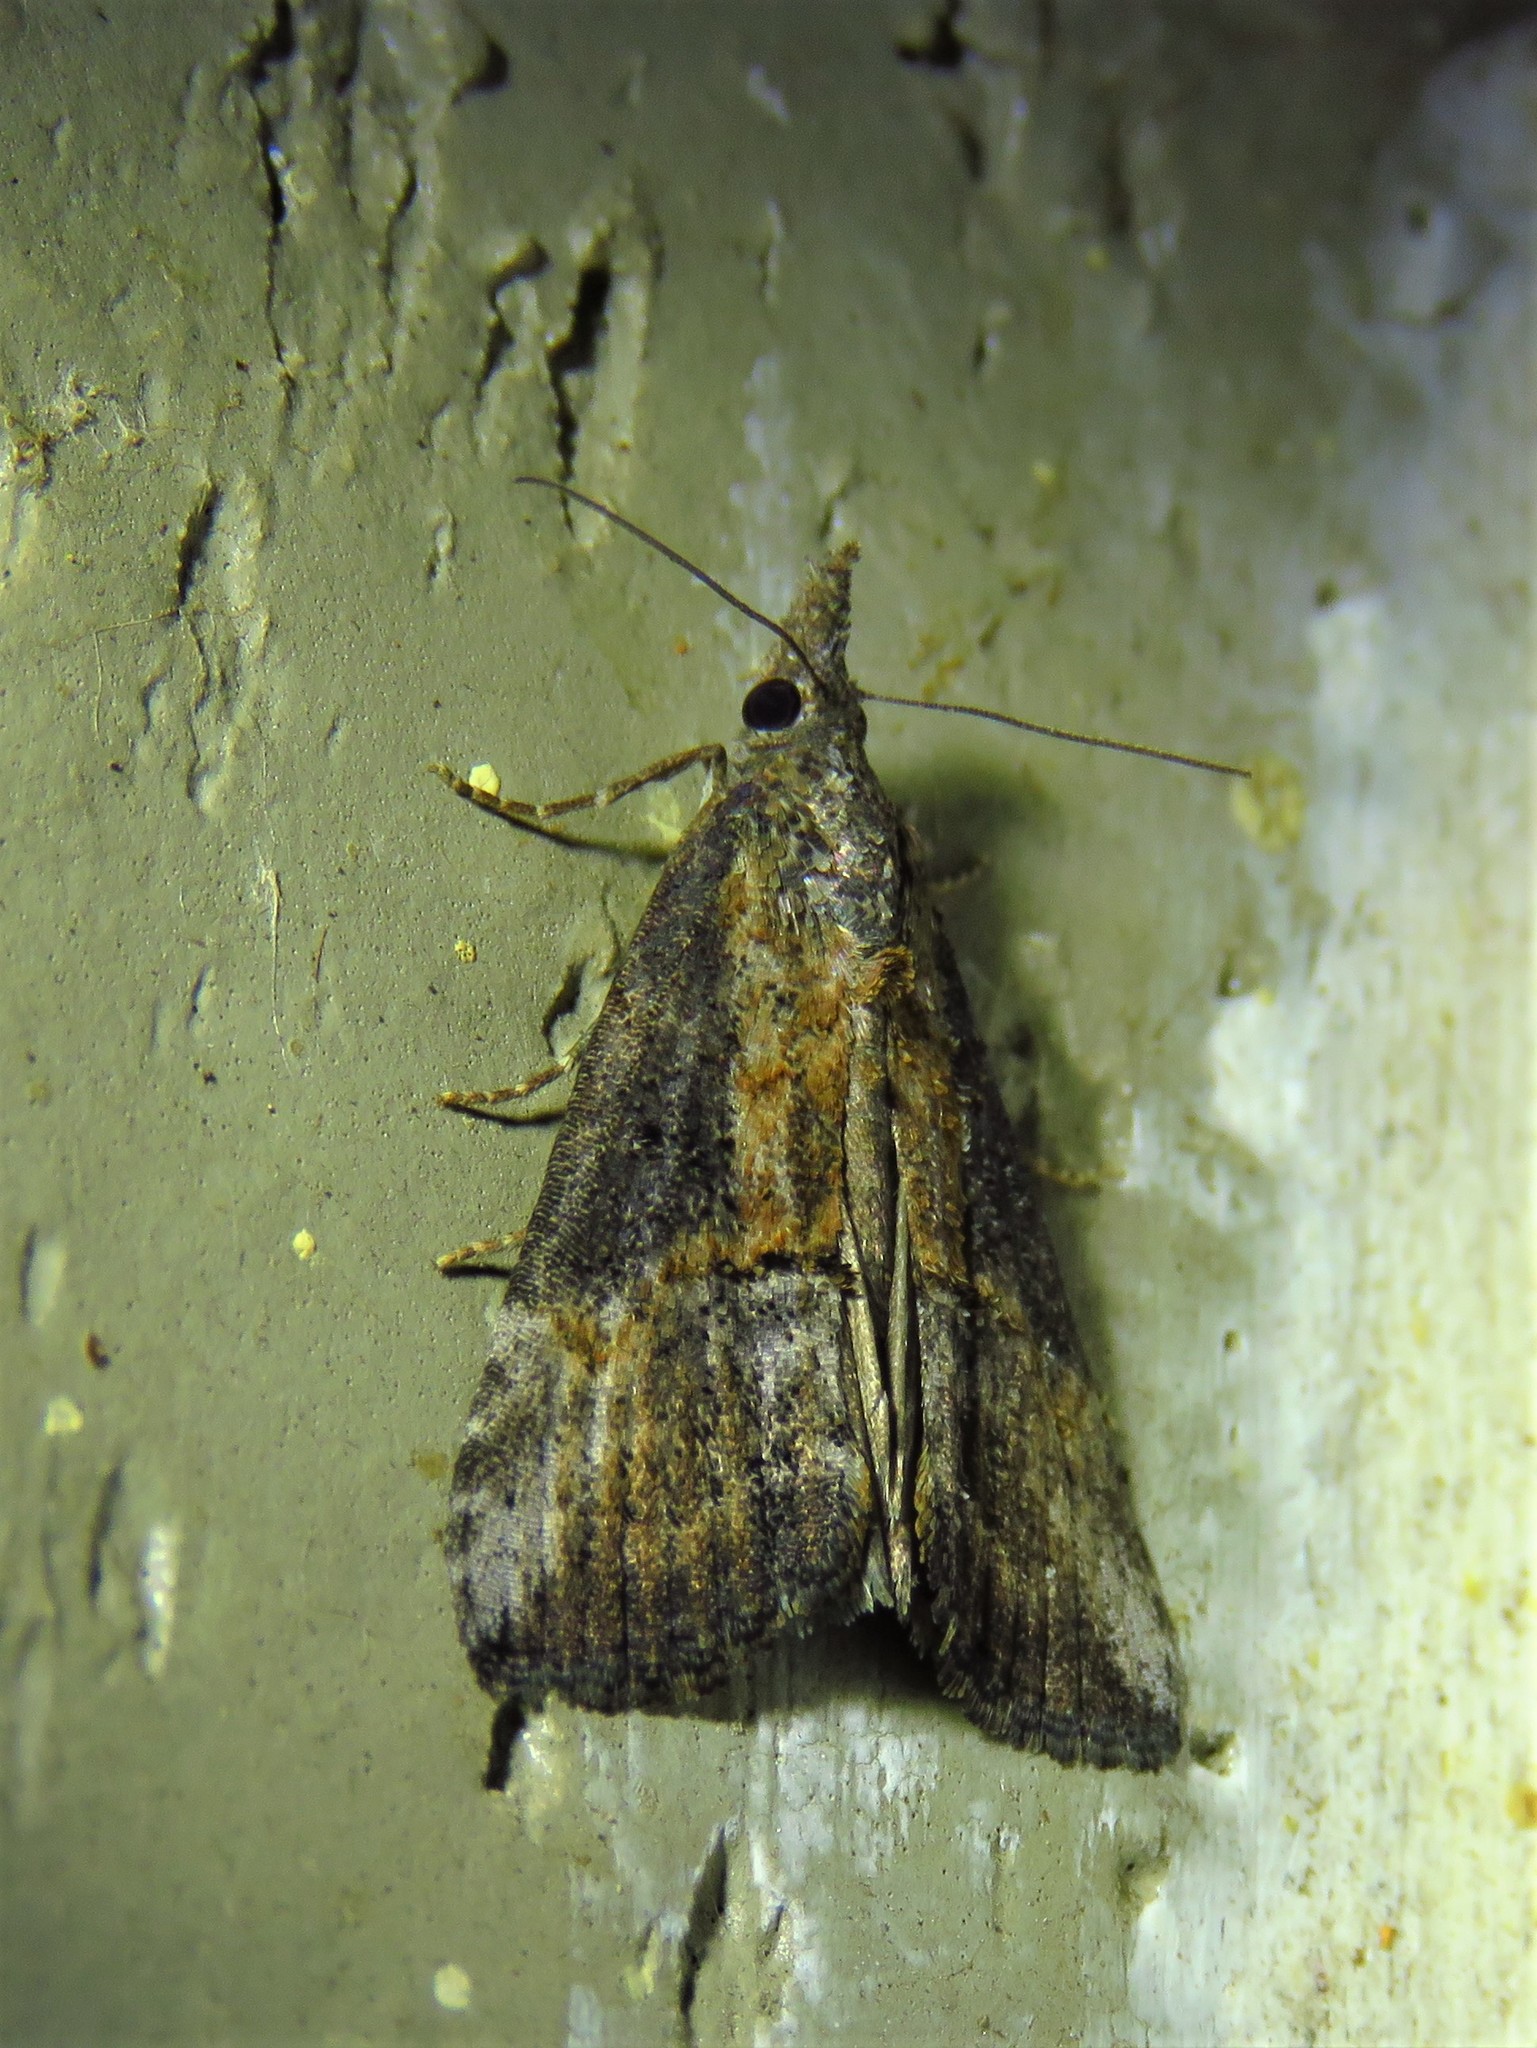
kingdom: Animalia
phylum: Arthropoda
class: Insecta
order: Lepidoptera
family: Erebidae
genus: Hypena
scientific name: Hypena scabra
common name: Green cloverworm
